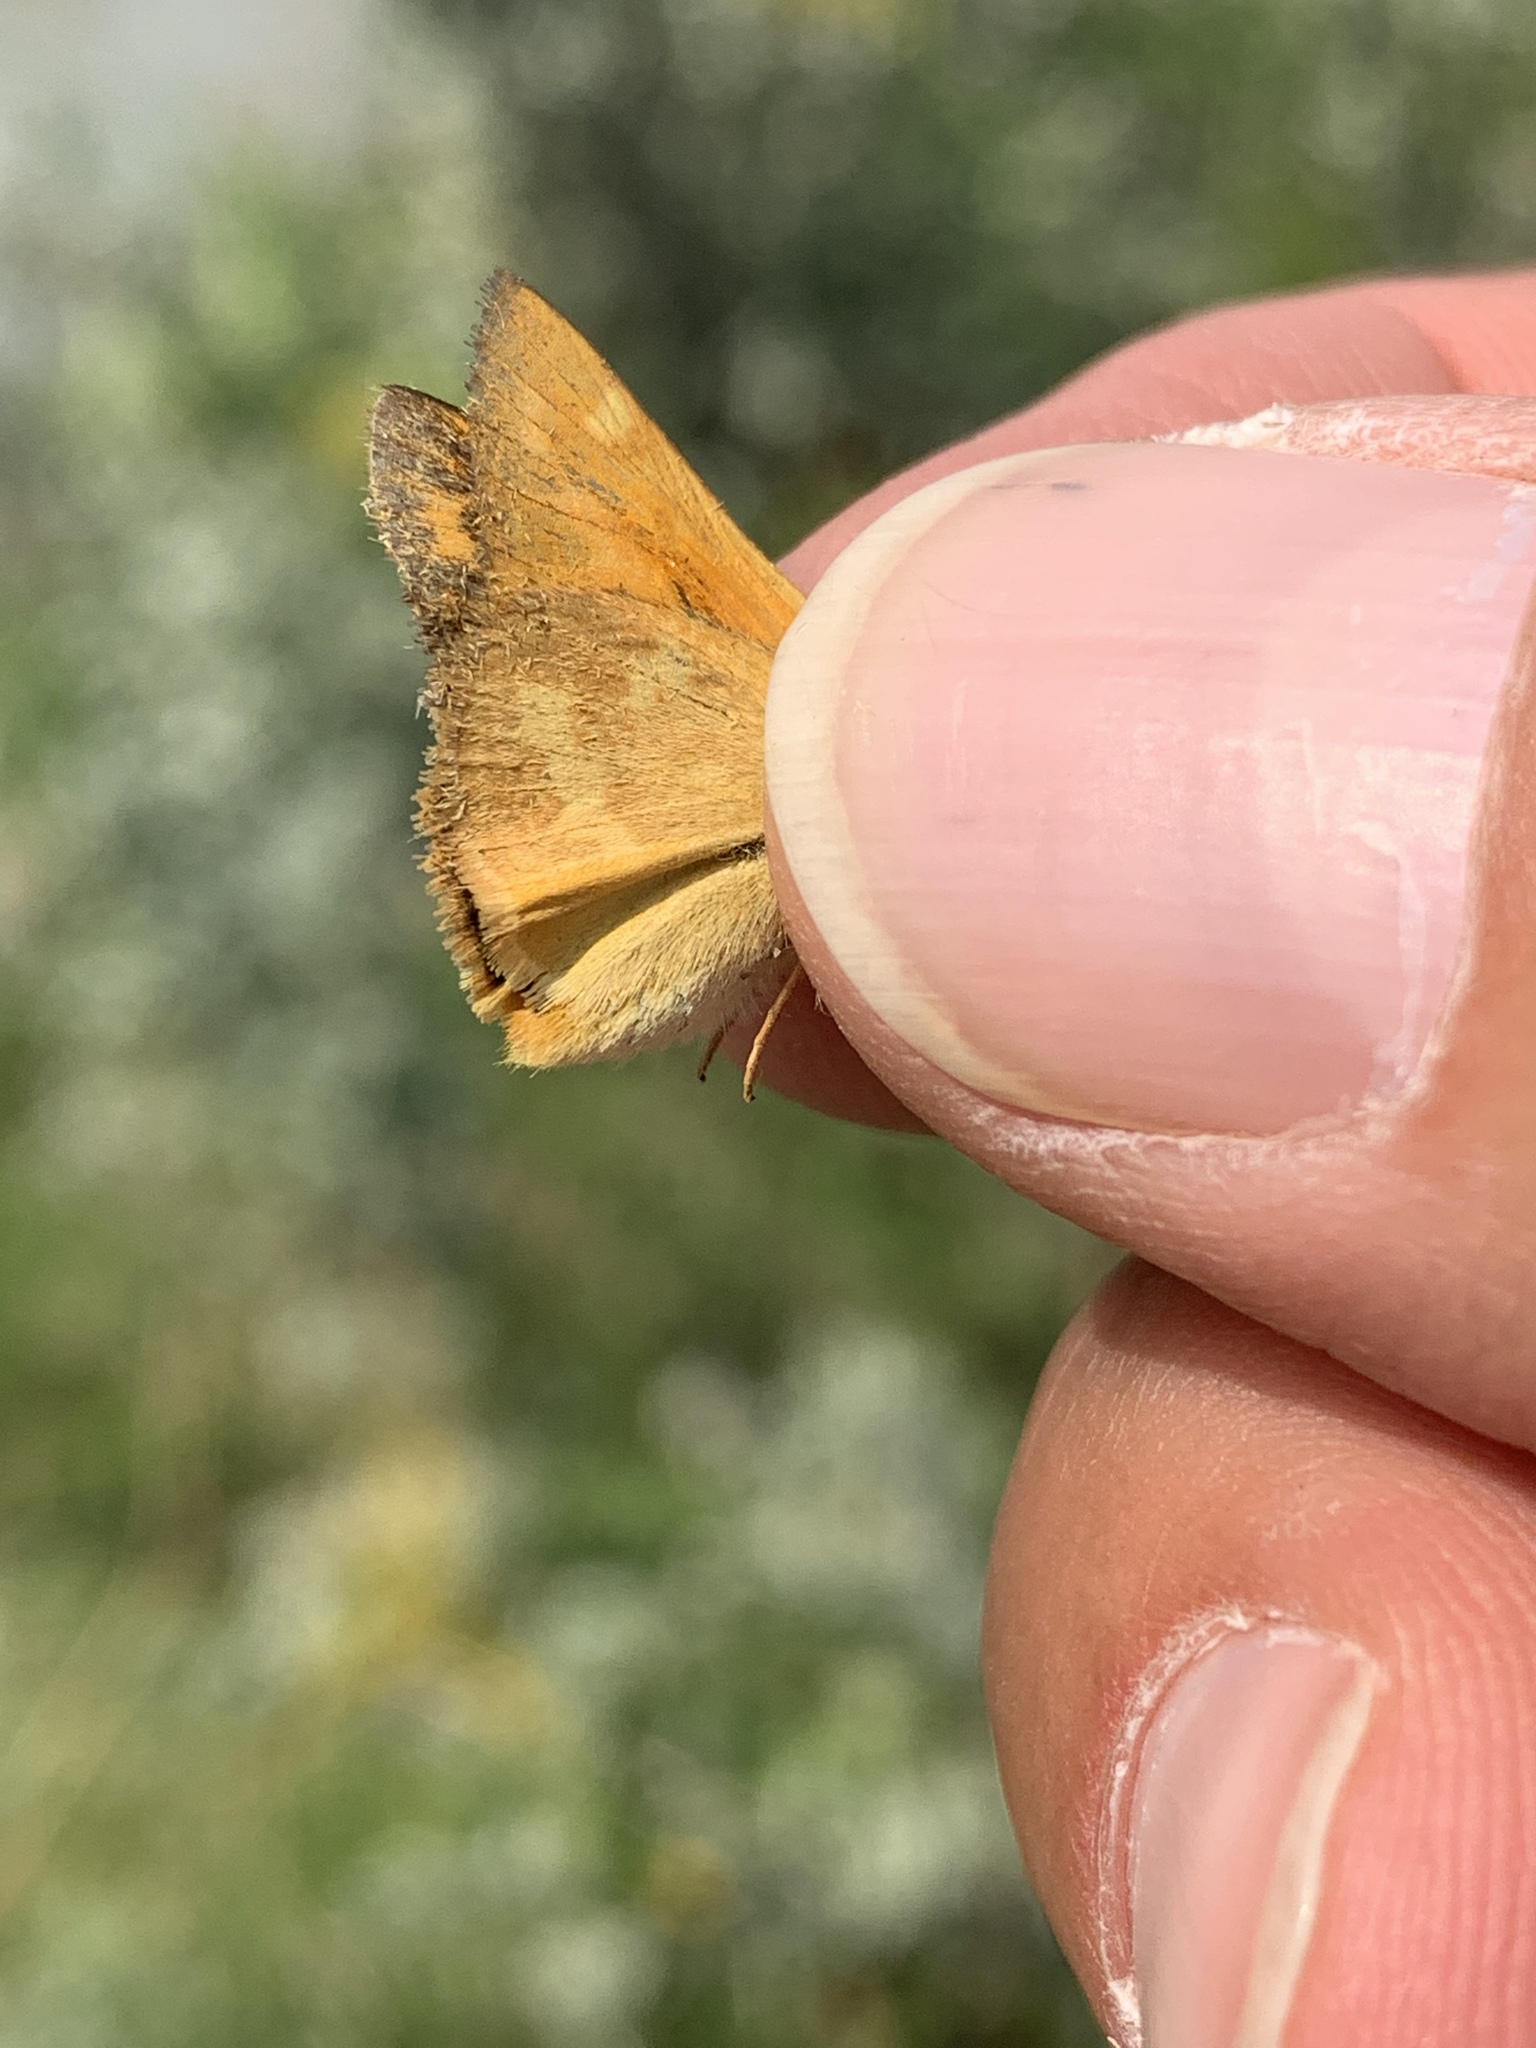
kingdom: Animalia
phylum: Arthropoda
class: Insecta
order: Lepidoptera
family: Hesperiidae
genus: Ochlodes
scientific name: Ochlodes sylvanoides
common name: Woodland skipper
